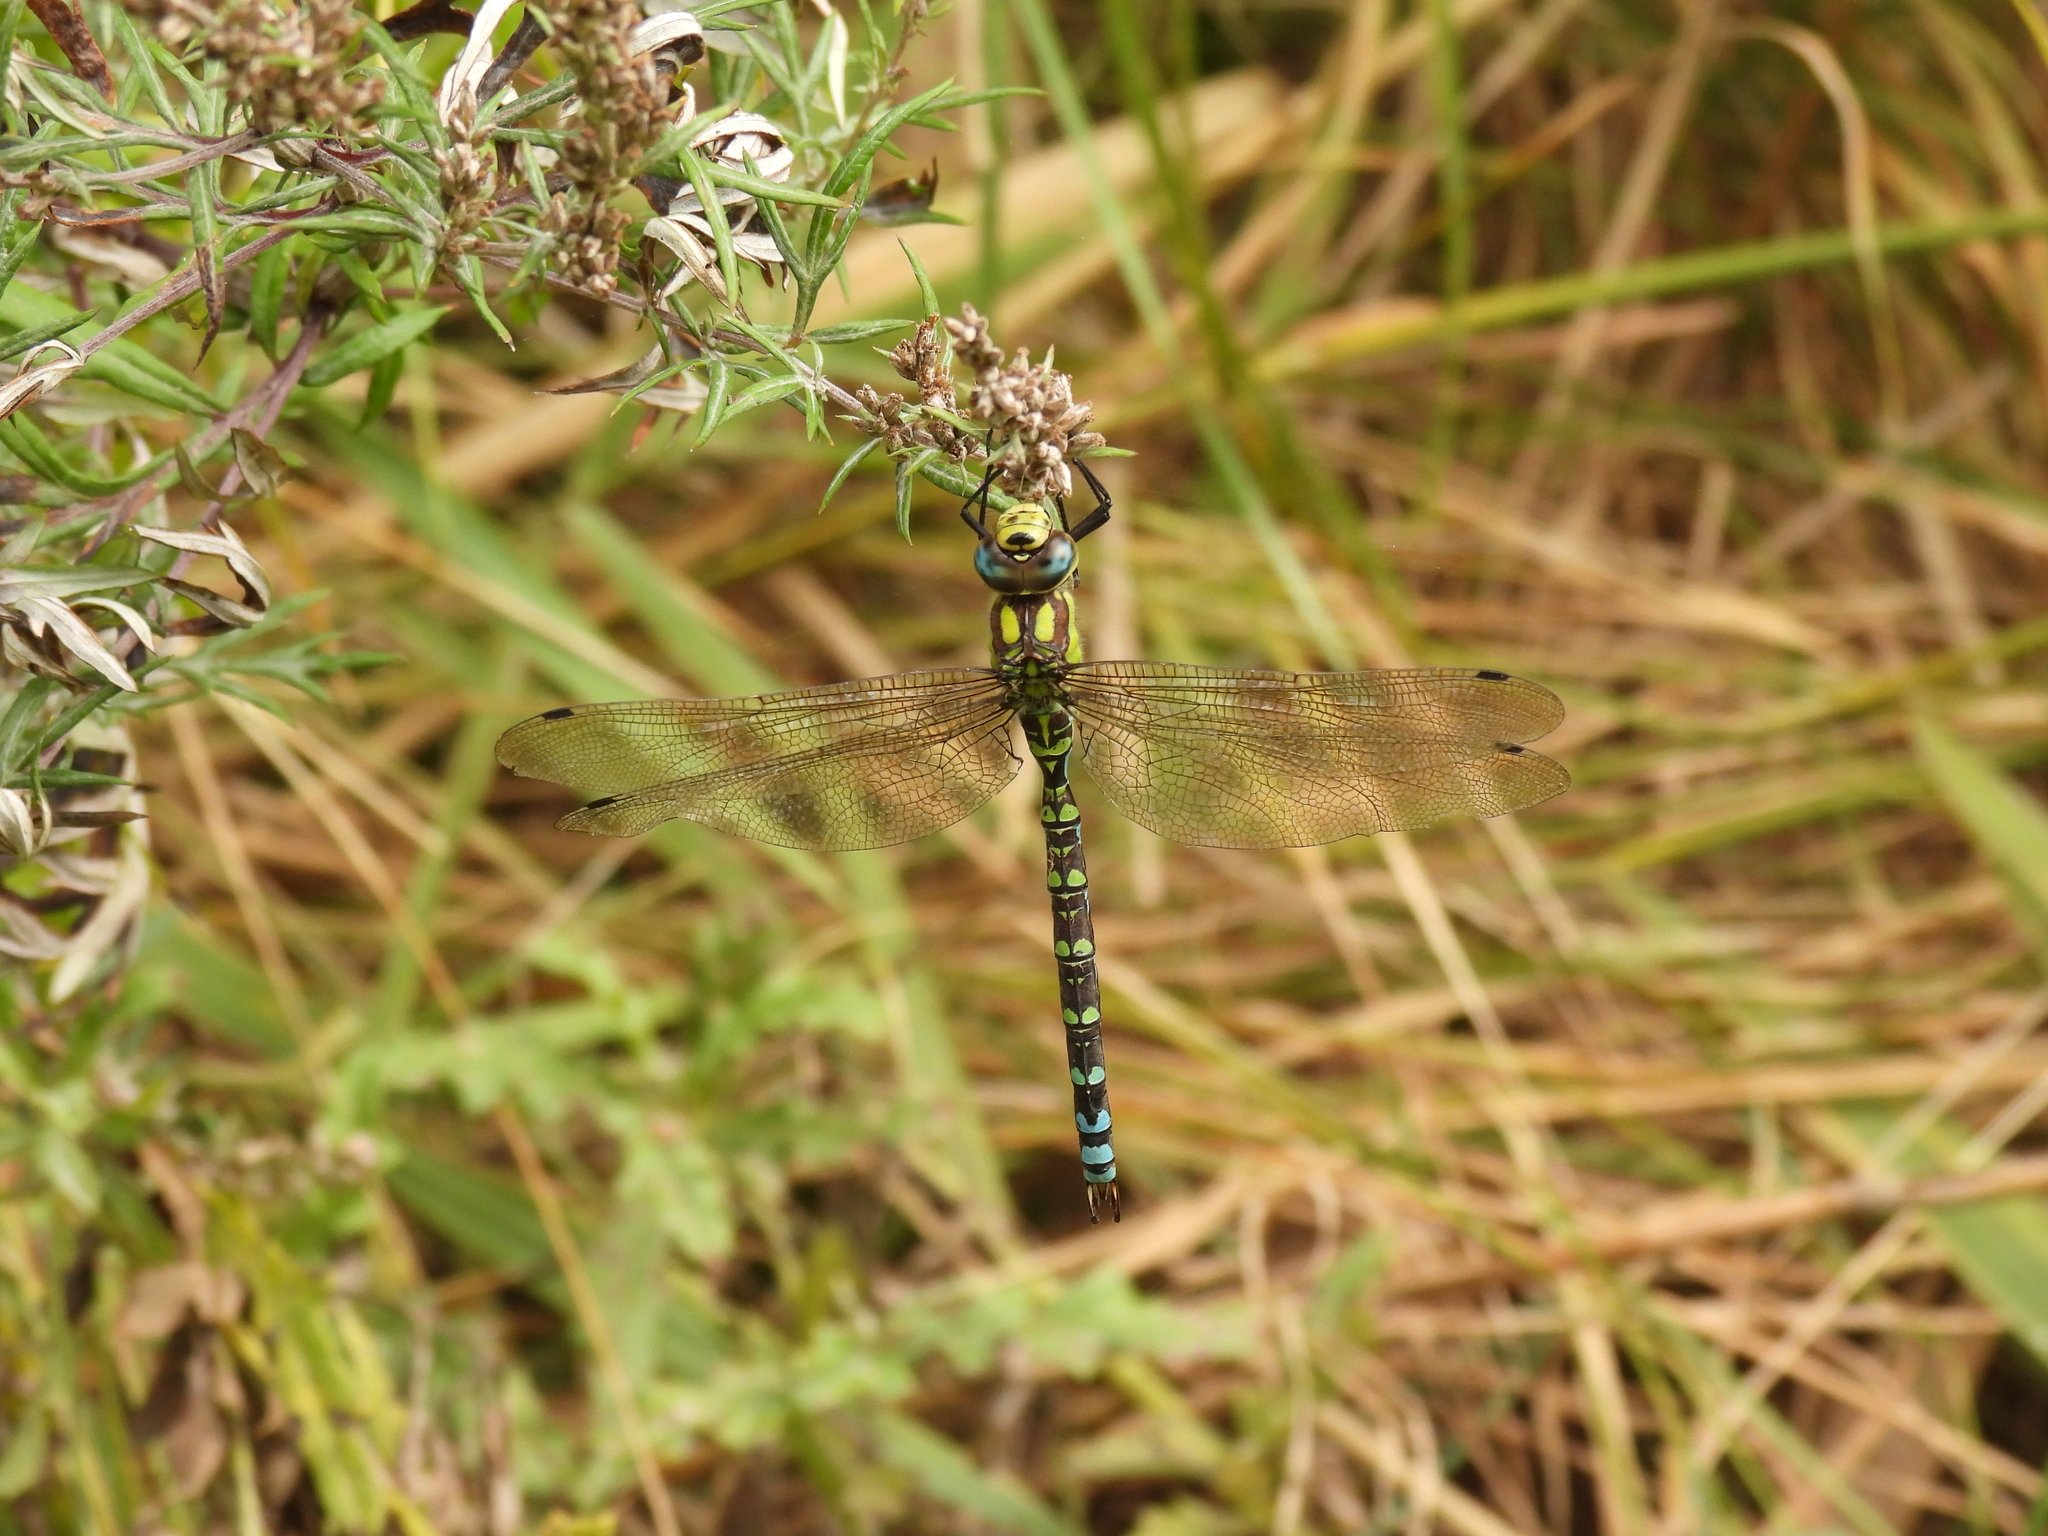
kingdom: Animalia
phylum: Arthropoda
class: Insecta
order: Odonata
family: Aeshnidae
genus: Aeshna
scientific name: Aeshna cyanea
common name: Southern hawker
